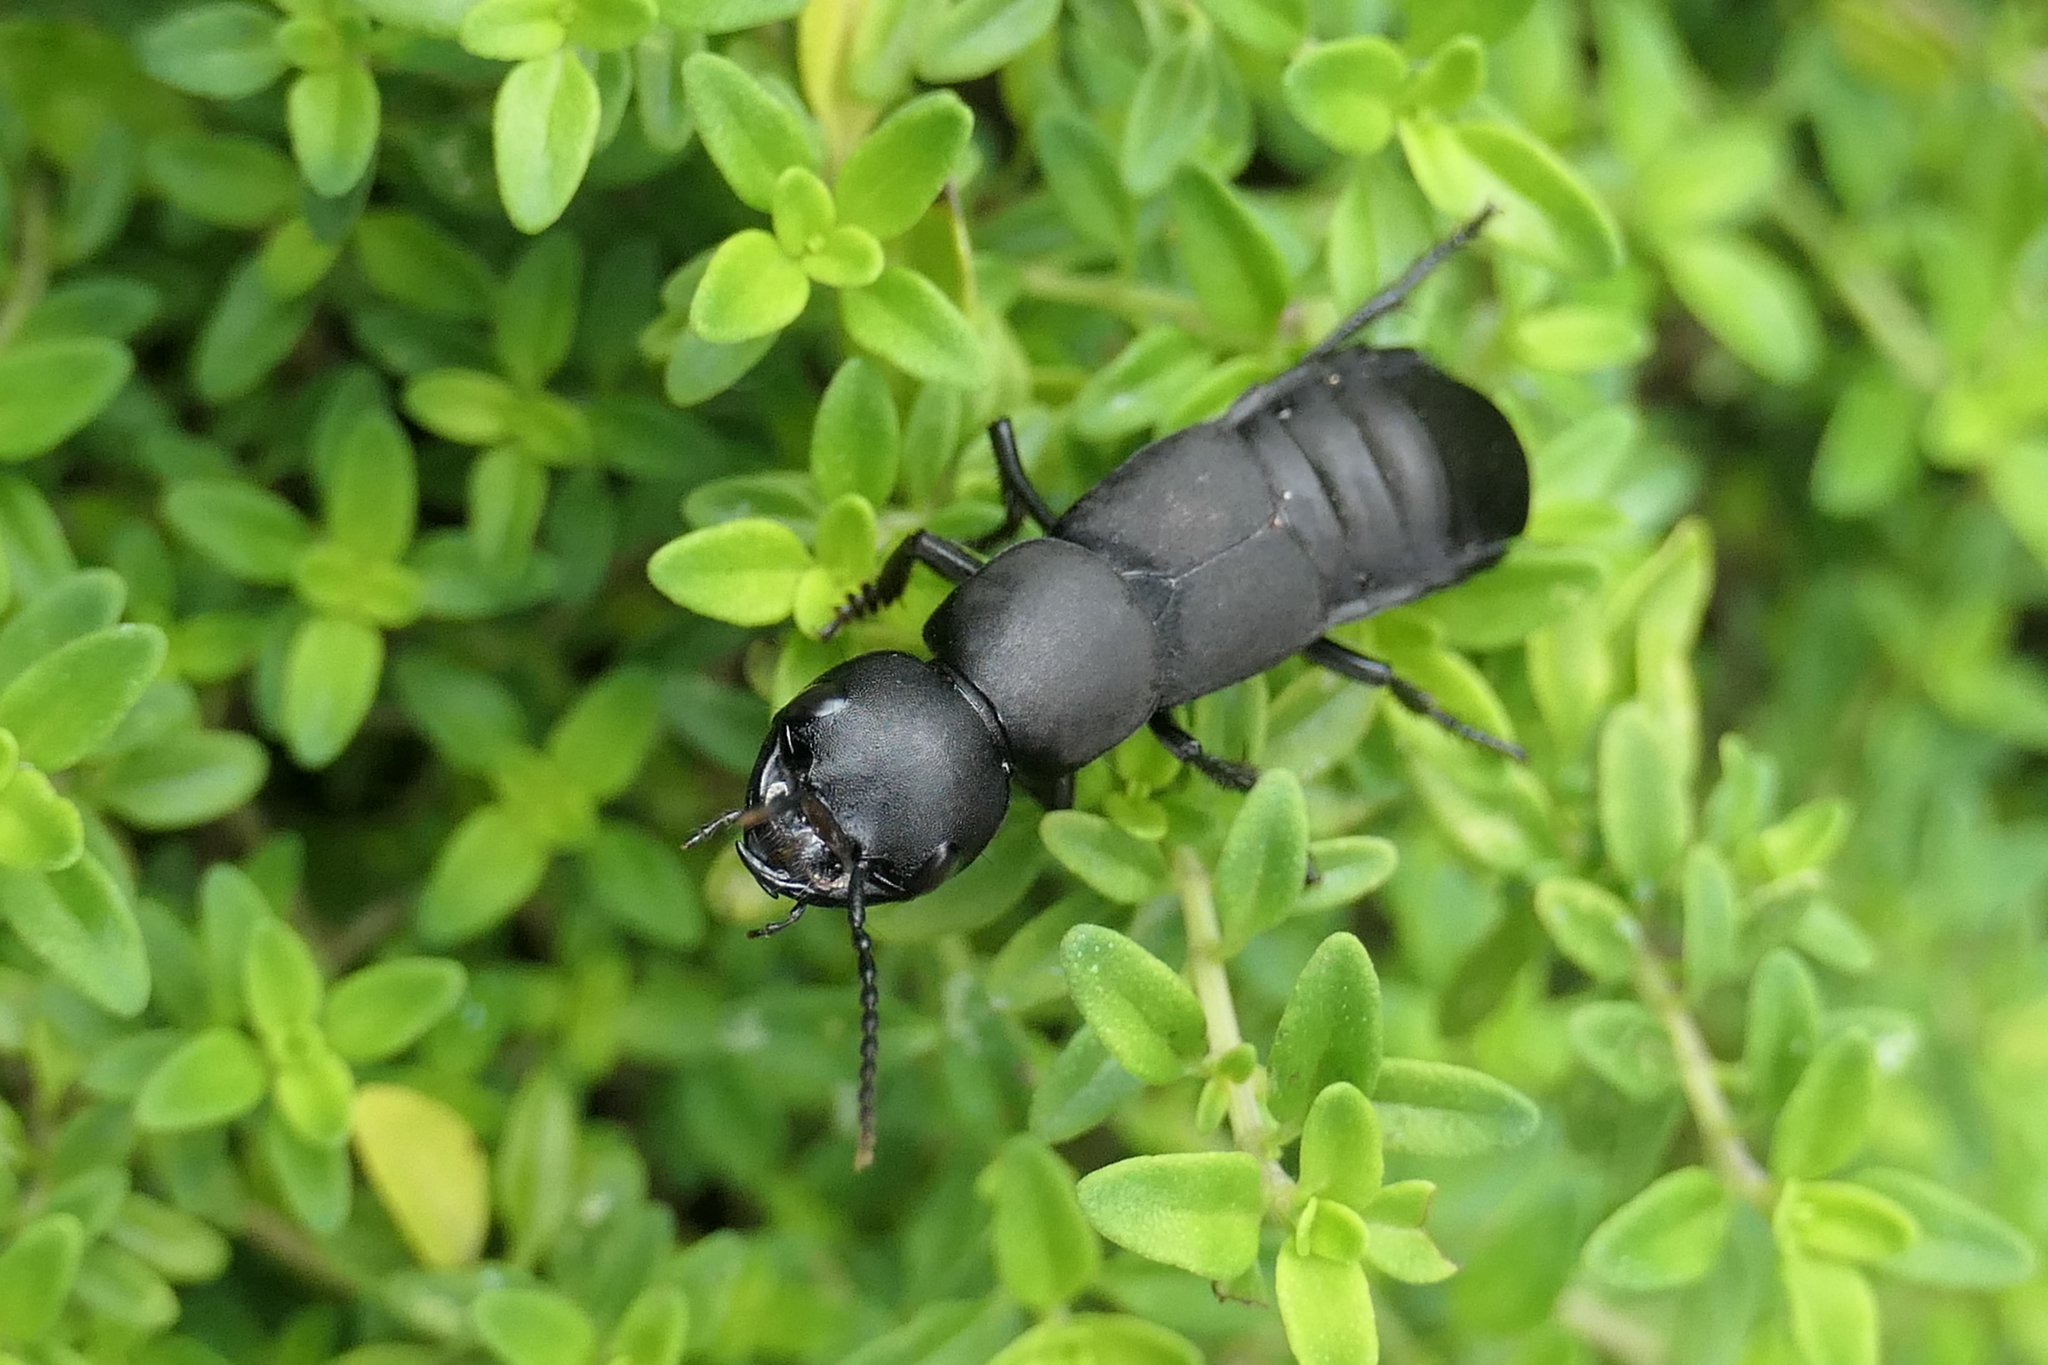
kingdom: Animalia
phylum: Arthropoda
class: Insecta
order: Coleoptera
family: Staphylinidae
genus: Ocypus
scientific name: Ocypus olens
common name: Devil's coach-horse
